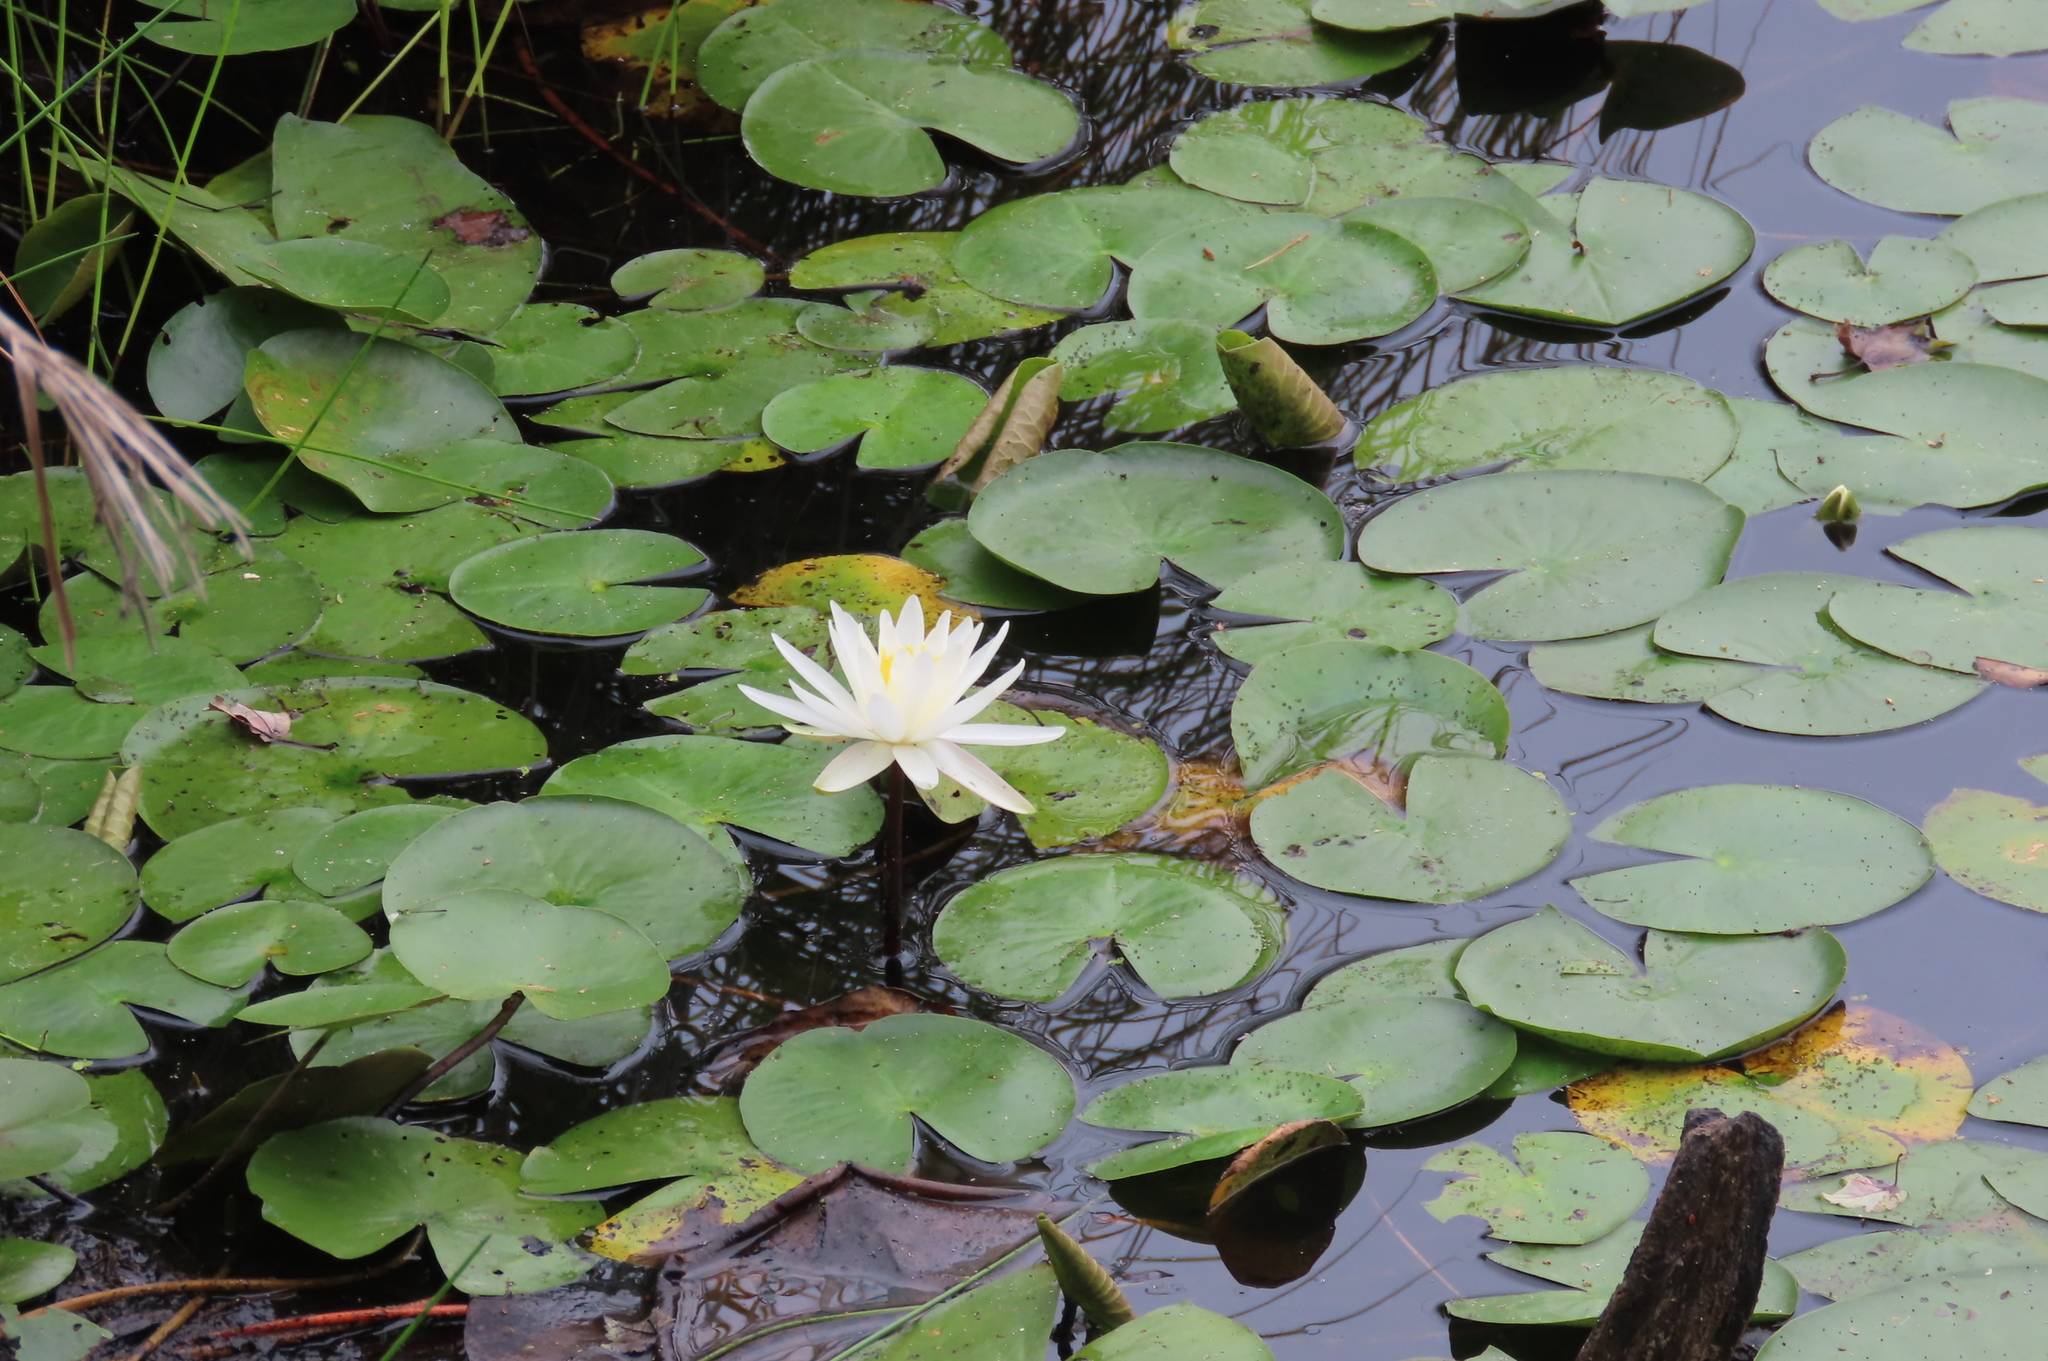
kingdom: Plantae
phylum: Tracheophyta
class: Magnoliopsida
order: Nymphaeales
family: Nymphaeaceae
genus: Nymphaea
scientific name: Nymphaea odorata
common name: Fragrant water-lily
